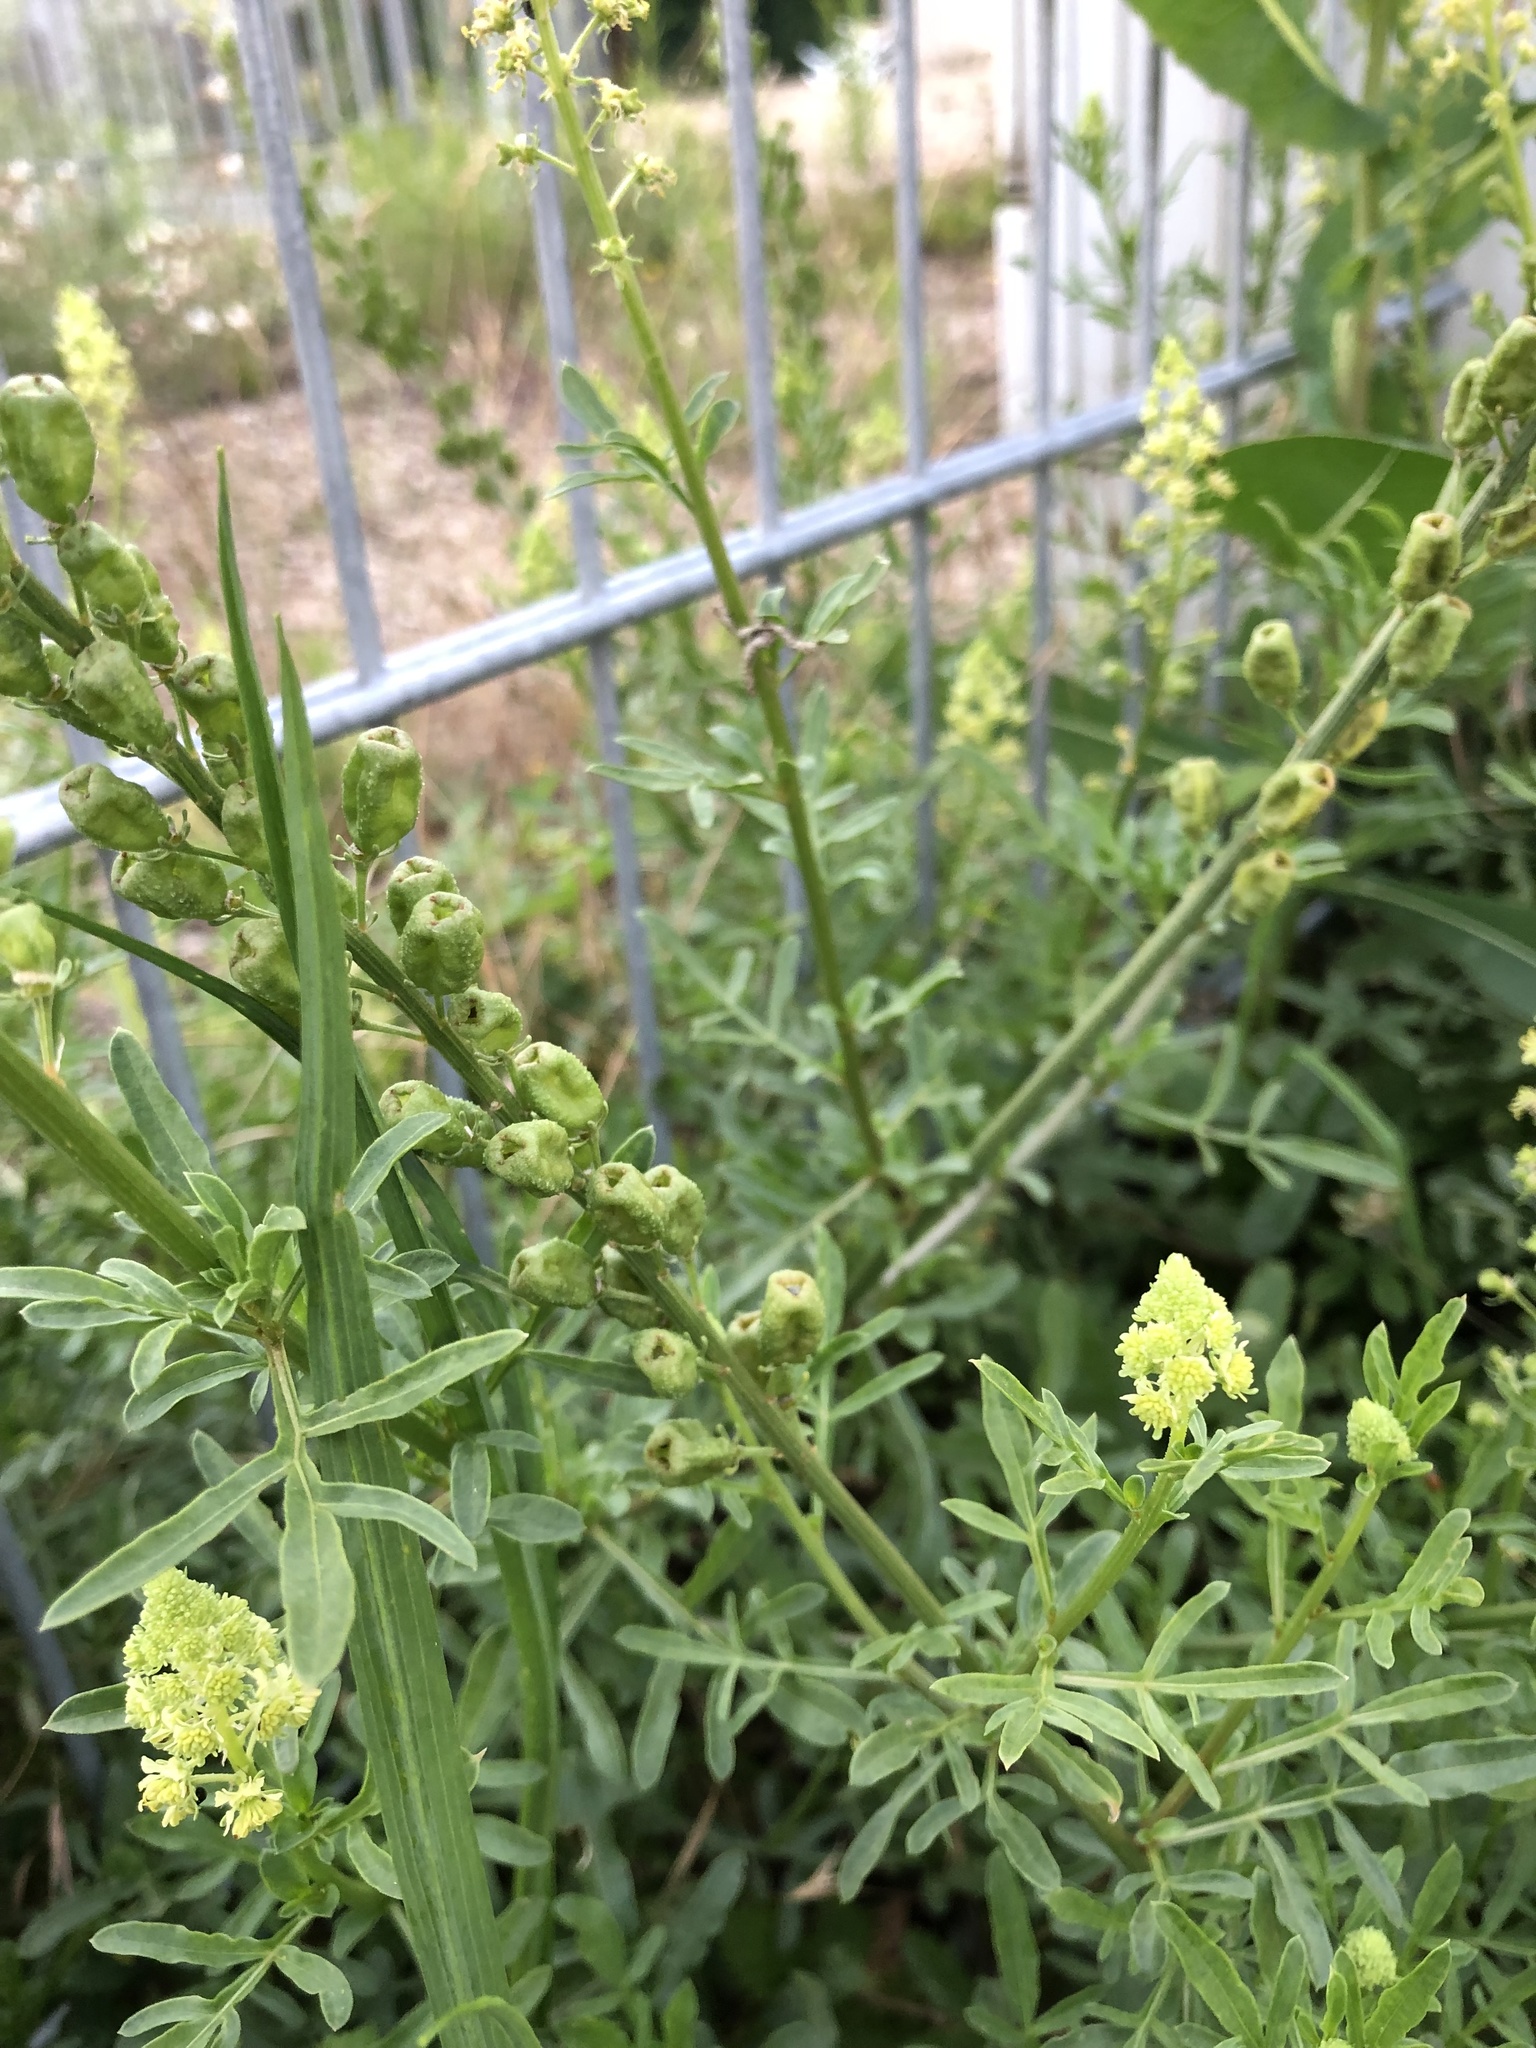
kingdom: Plantae
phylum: Tracheophyta
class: Magnoliopsida
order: Brassicales
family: Resedaceae
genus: Reseda
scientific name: Reseda lutea
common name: Wild mignonette
